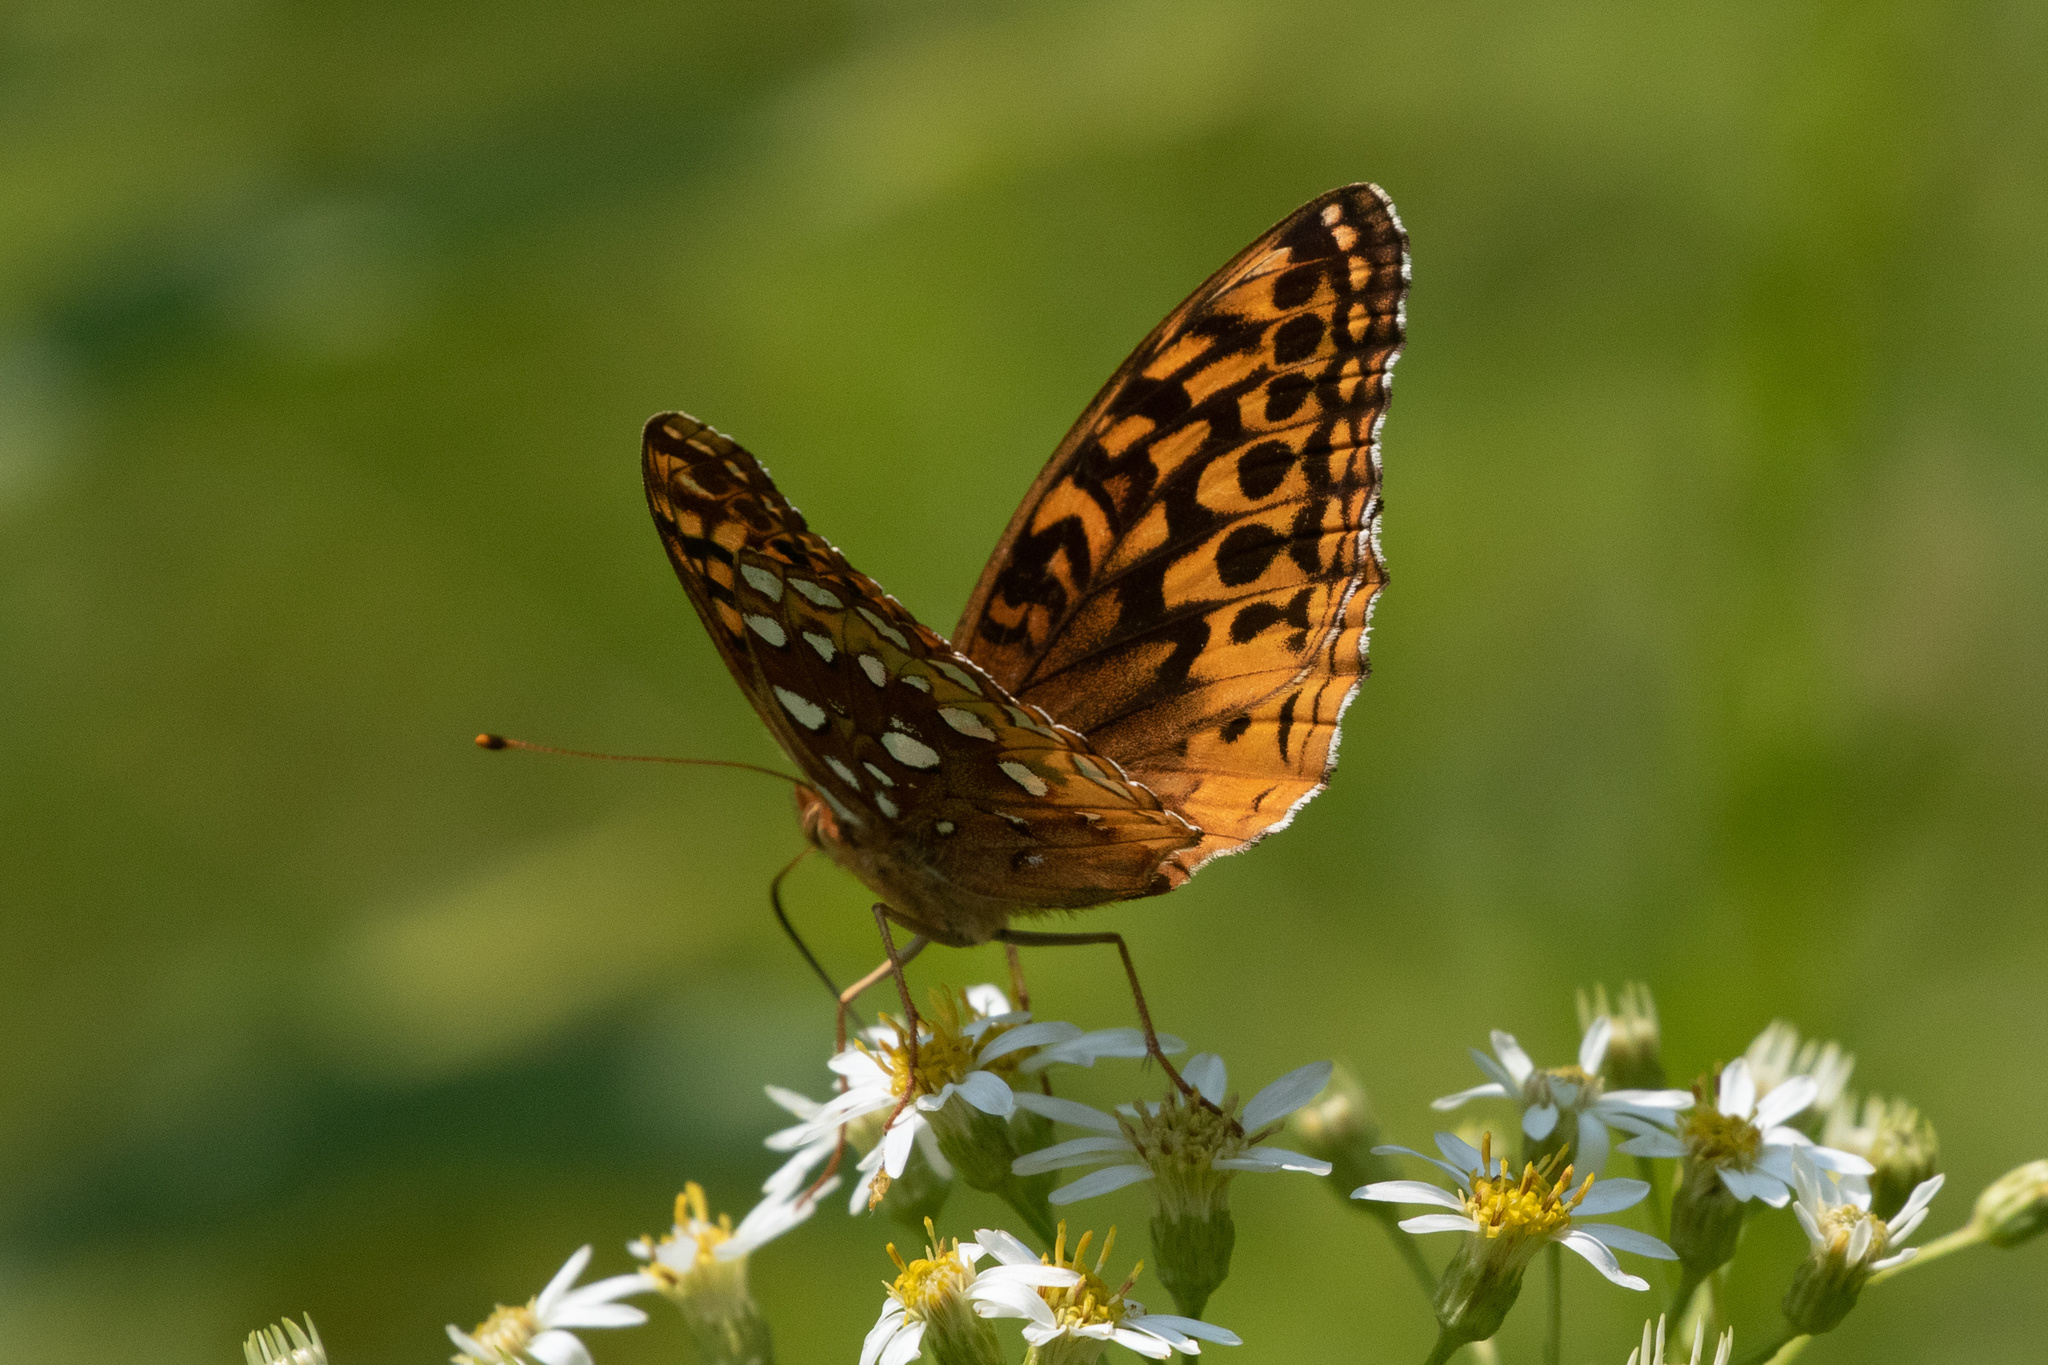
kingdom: Animalia
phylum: Arthropoda
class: Insecta
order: Lepidoptera
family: Nymphalidae
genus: Speyeria
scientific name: Speyeria cybele
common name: Great spangled fritillary
